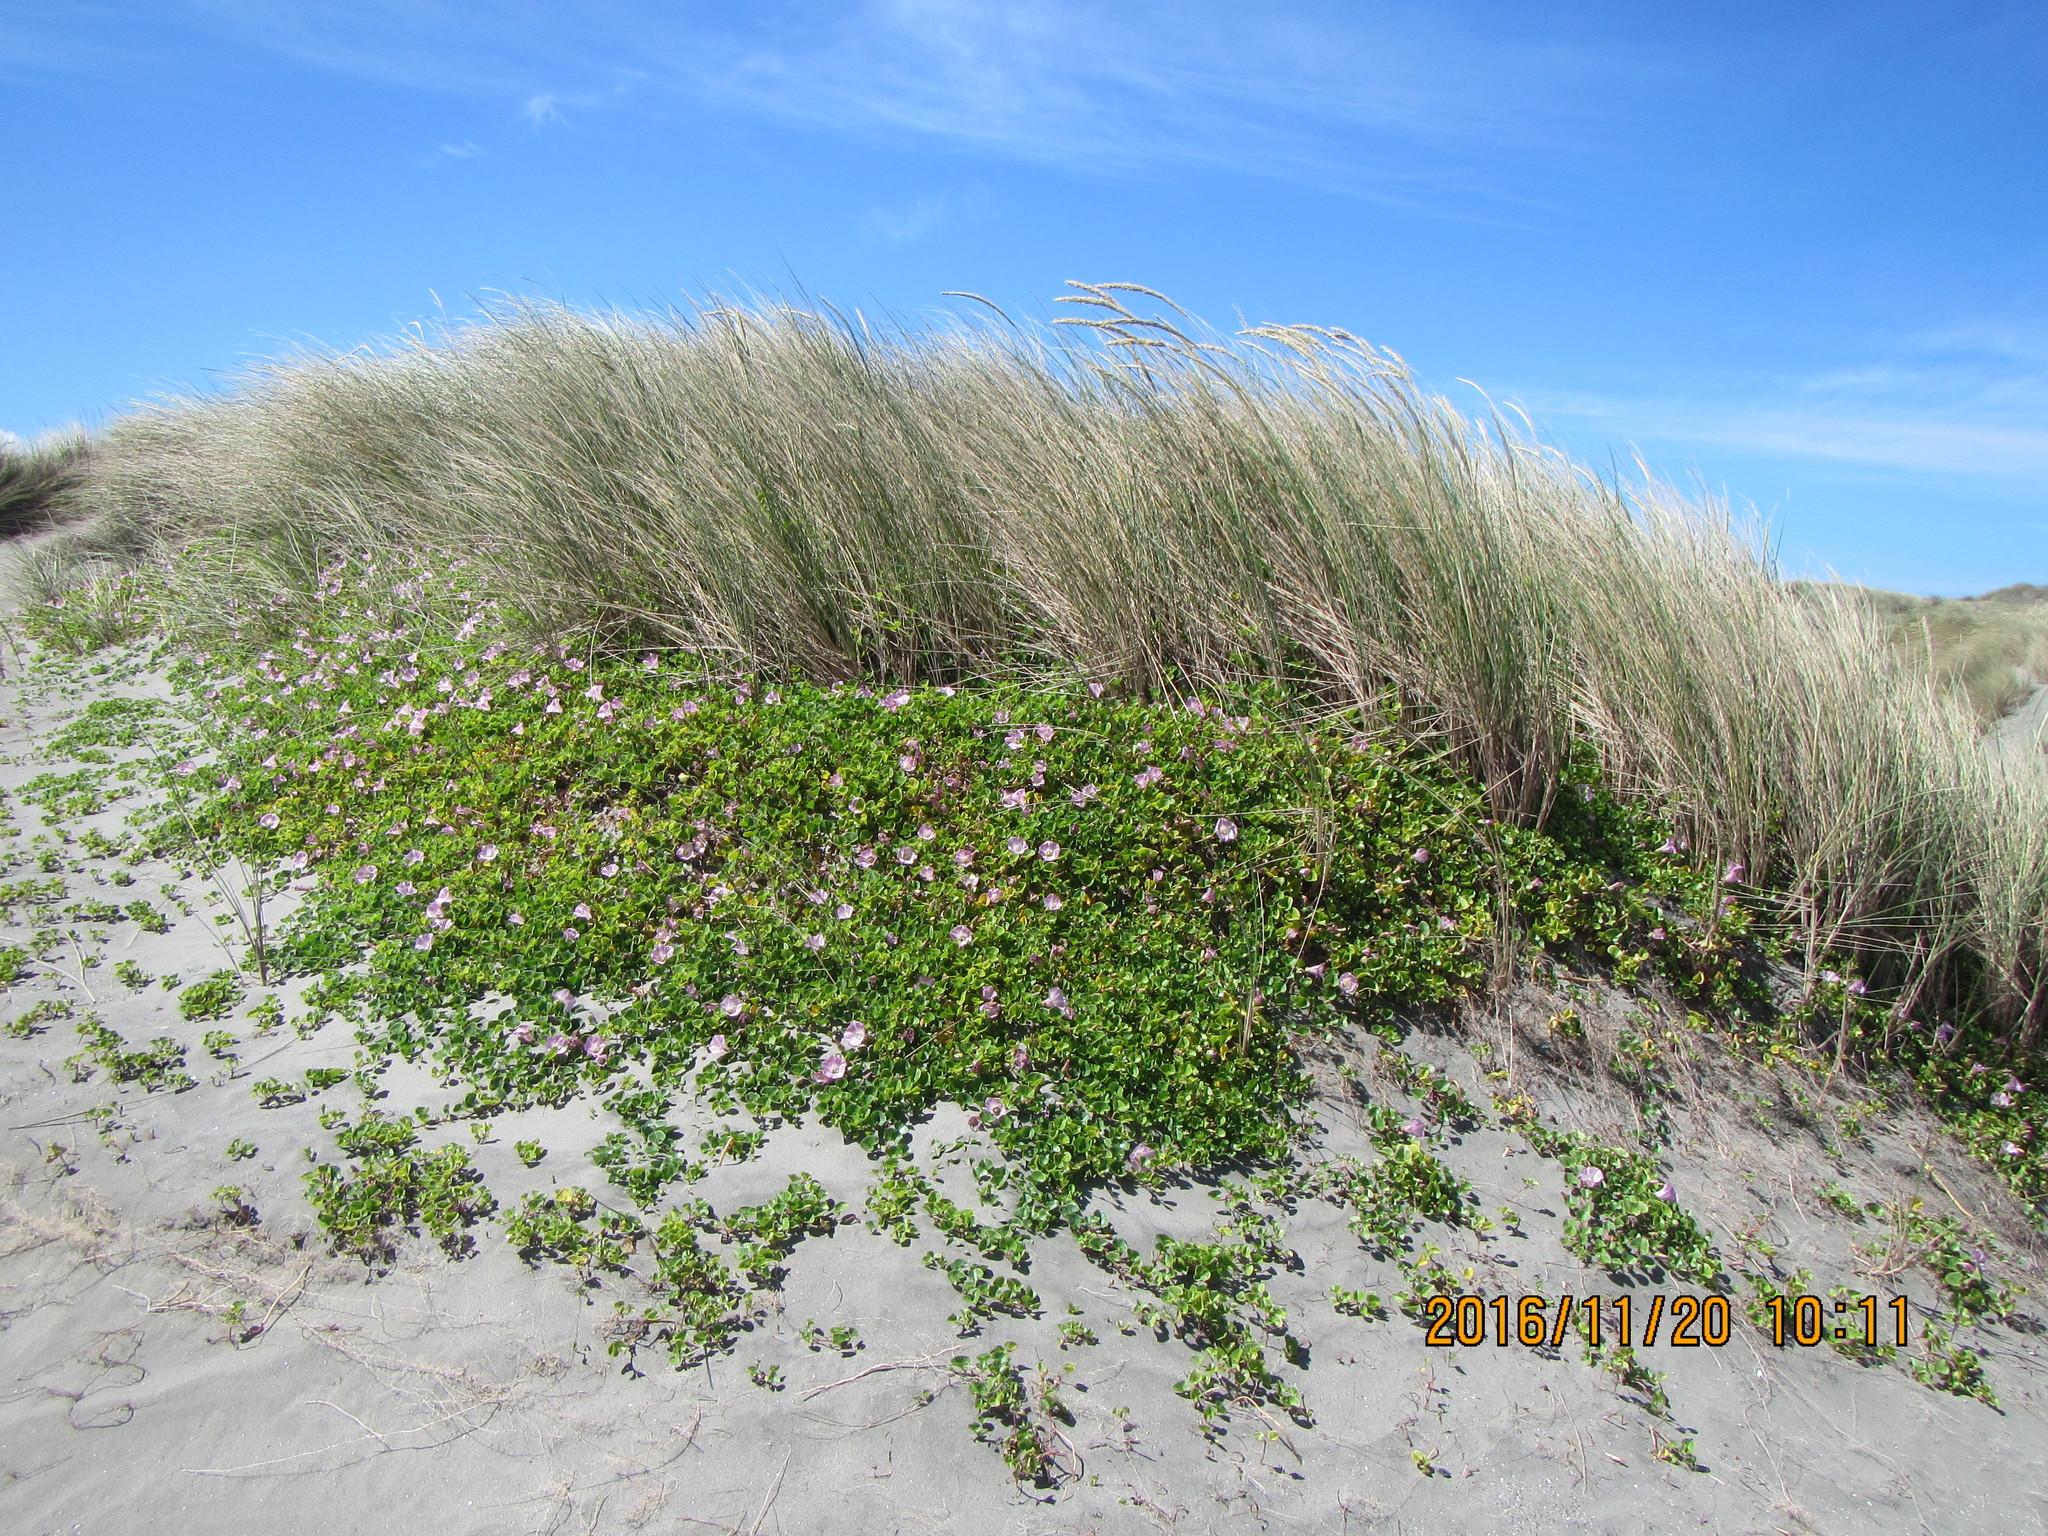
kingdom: Plantae
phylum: Tracheophyta
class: Magnoliopsida
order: Solanales
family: Convolvulaceae
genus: Calystegia
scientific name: Calystegia soldanella
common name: Sea bindweed
